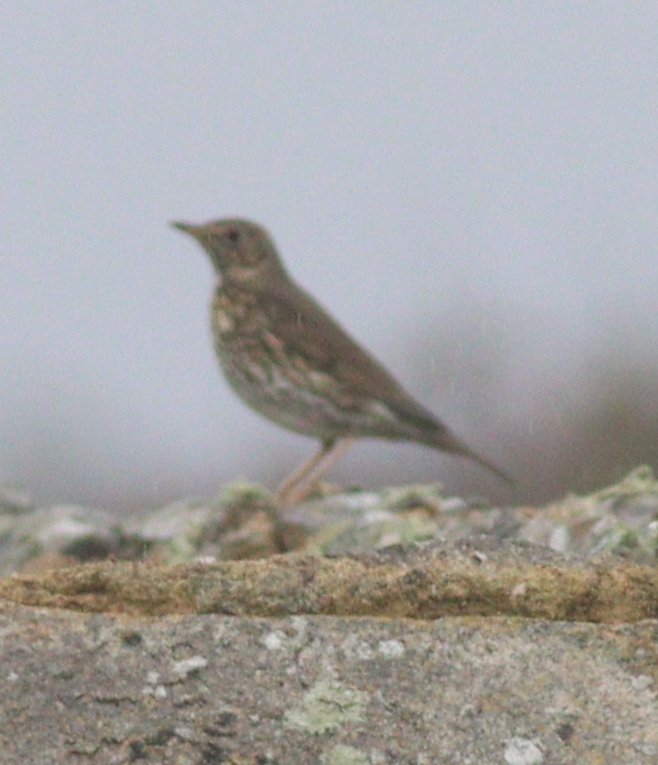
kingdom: Animalia
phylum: Chordata
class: Aves
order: Passeriformes
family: Turdidae
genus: Turdus
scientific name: Turdus philomelos
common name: Song thrush
